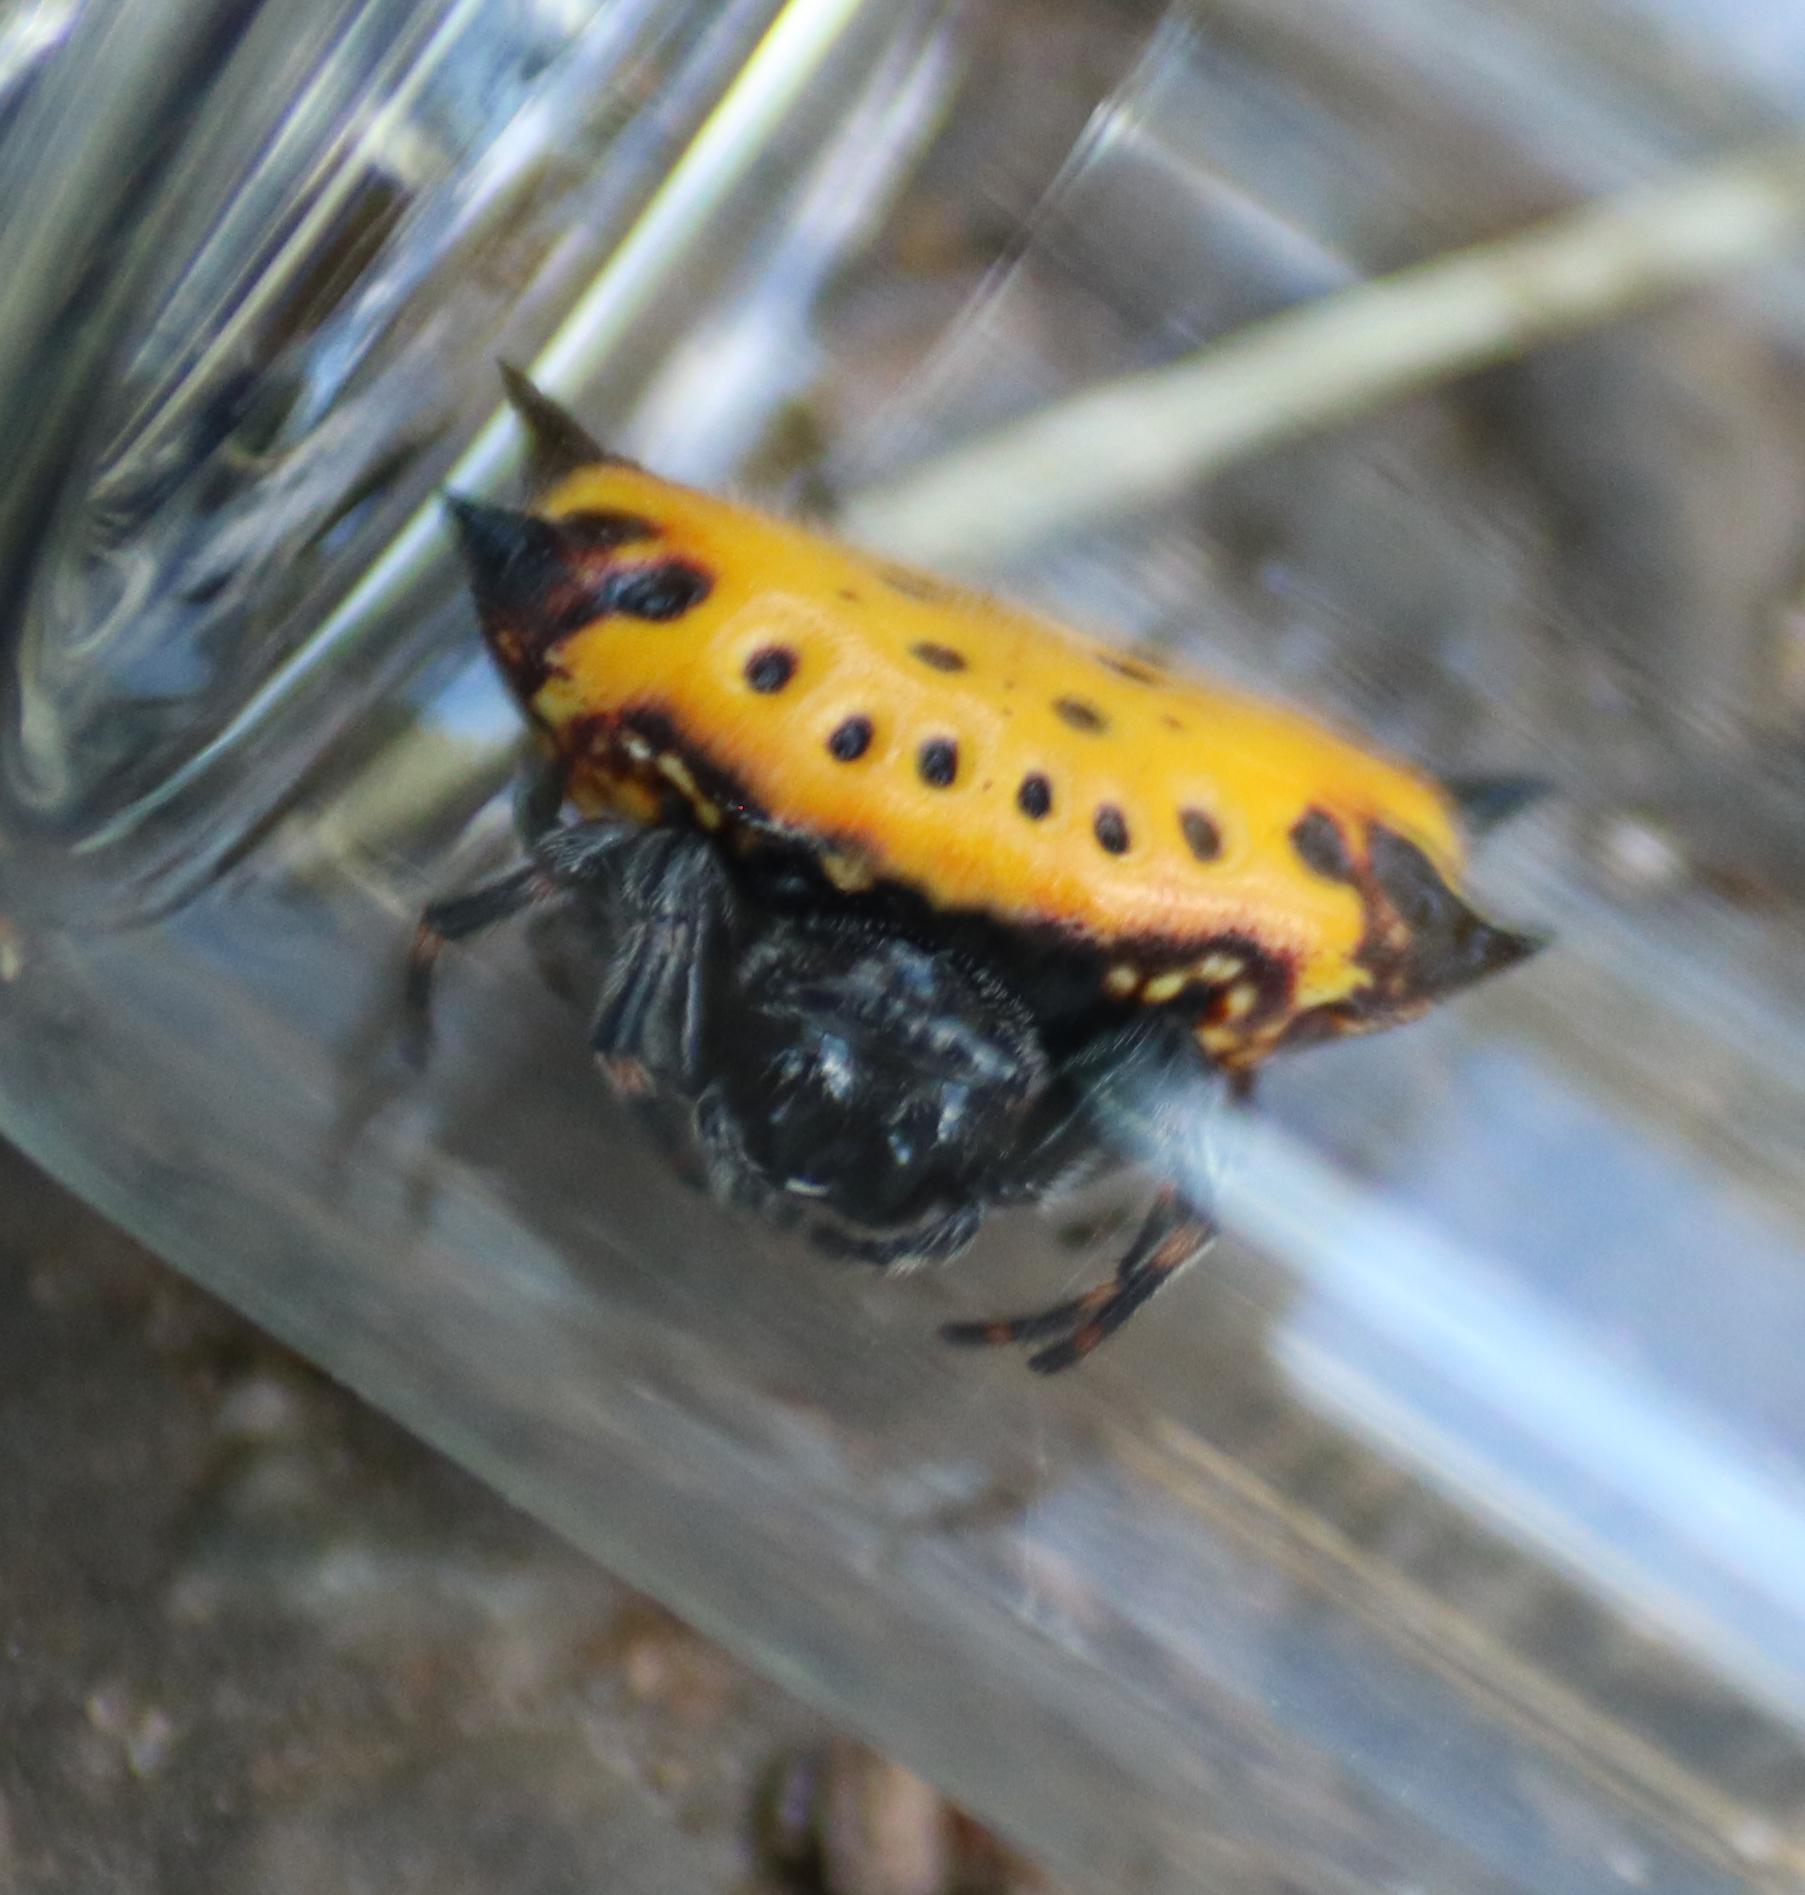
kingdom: Animalia
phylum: Arthropoda
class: Arachnida
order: Araneae
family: Araneidae
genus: Gasteracantha
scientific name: Gasteracantha cancriformis
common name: Orb weavers
